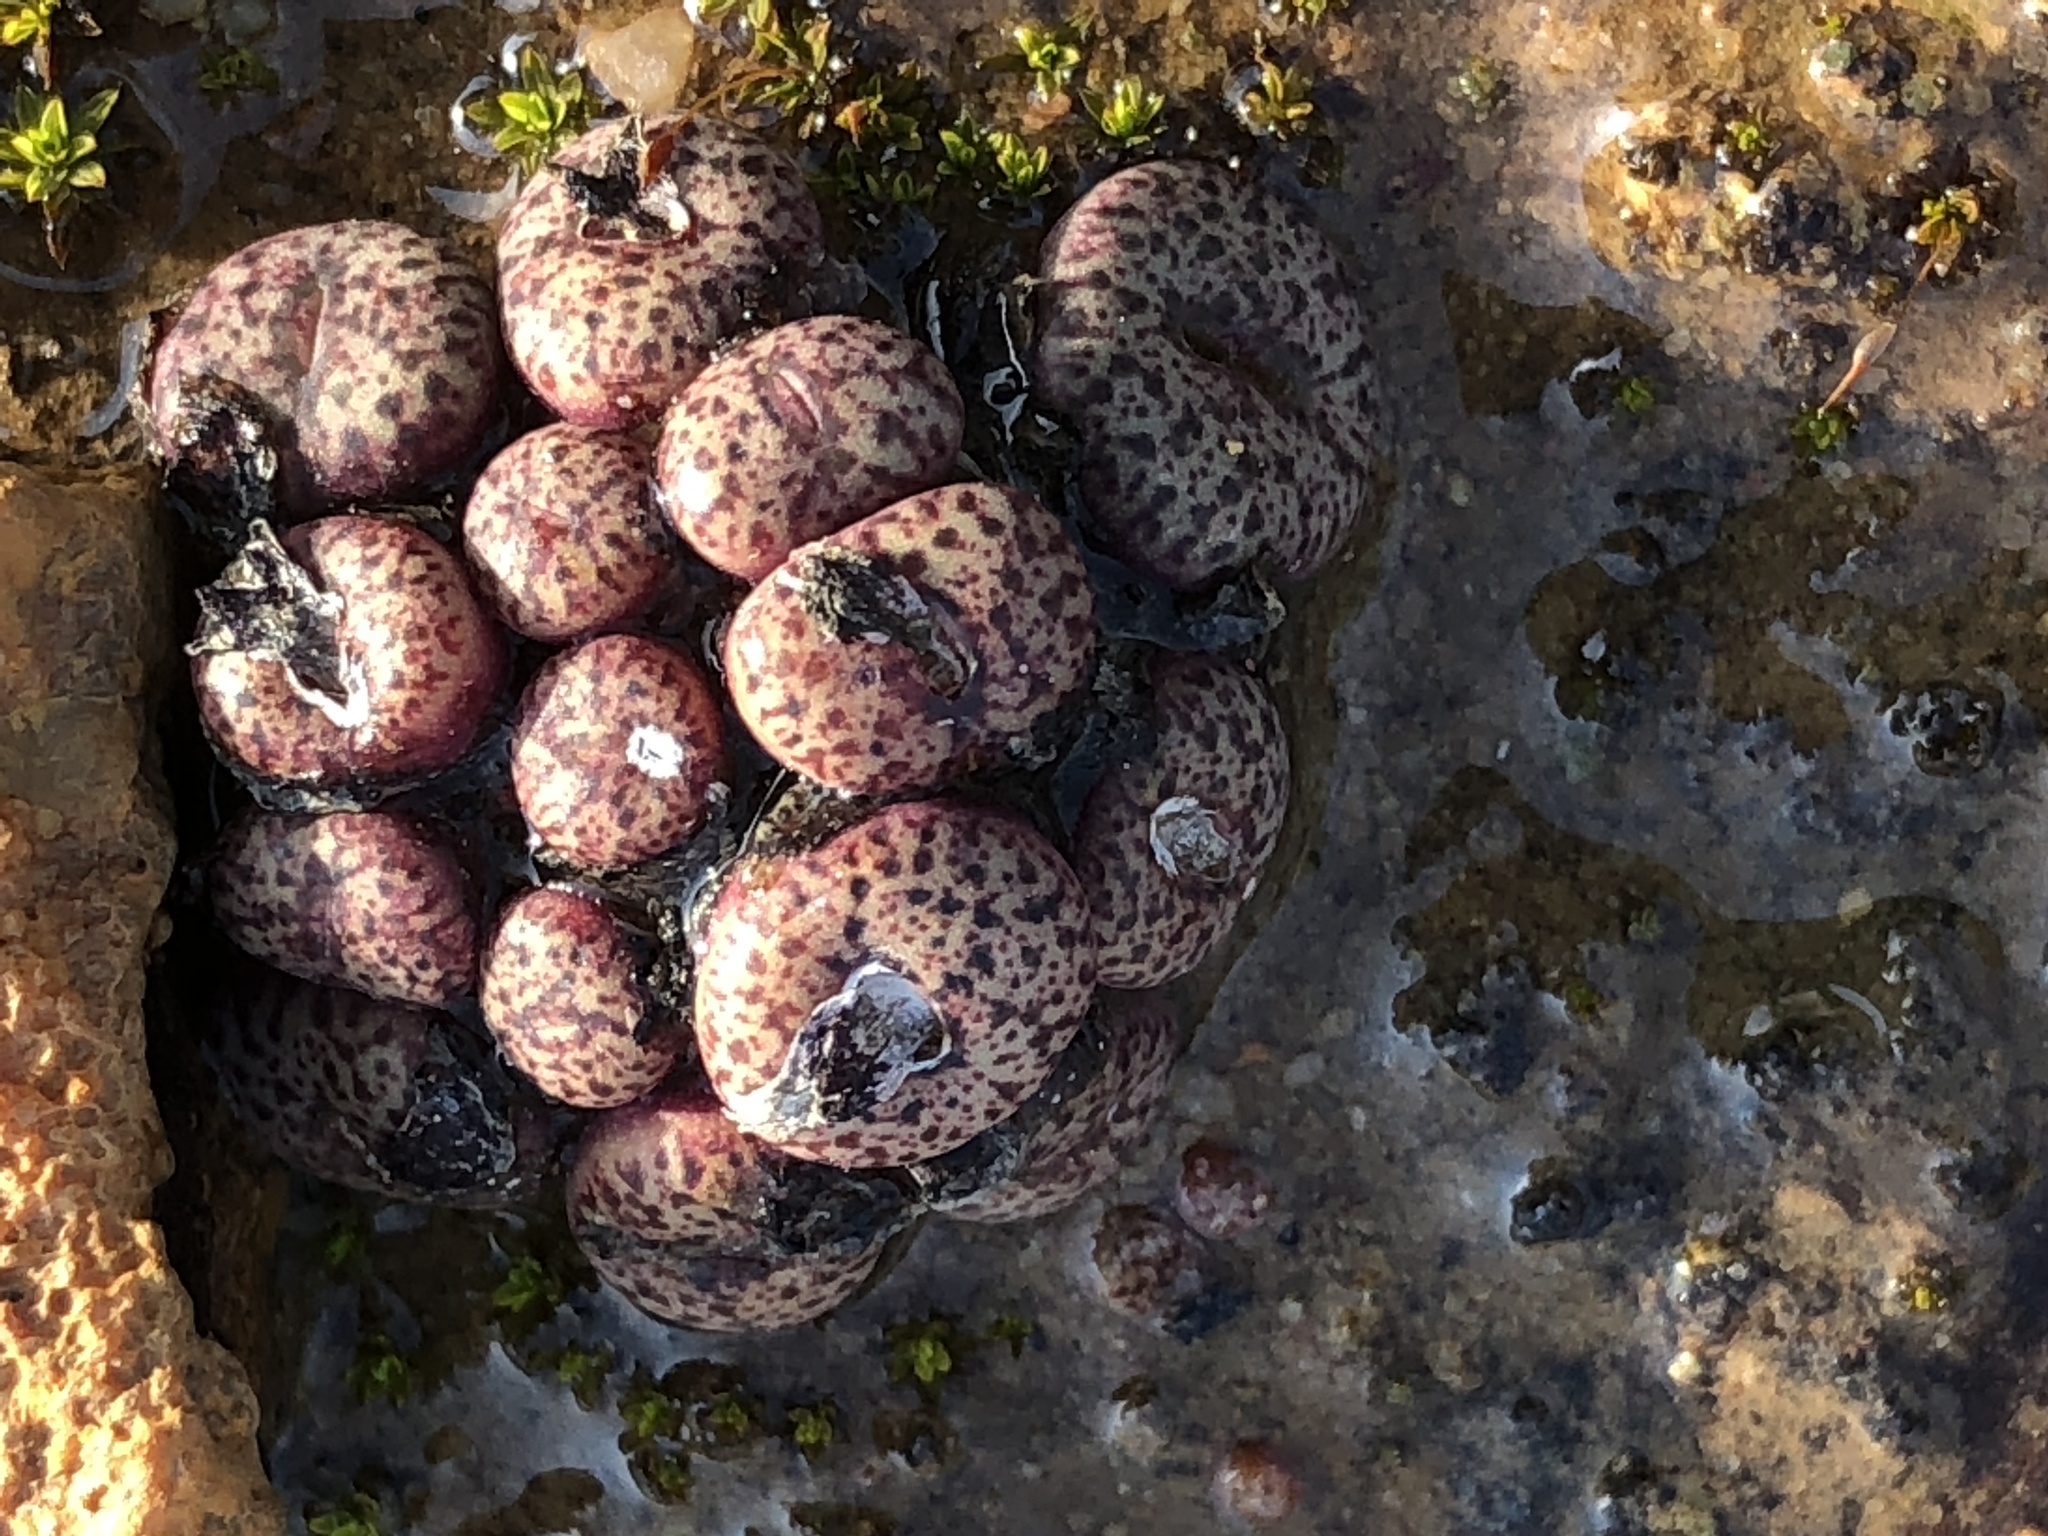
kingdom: Plantae
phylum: Tracheophyta
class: Magnoliopsida
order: Caryophyllales
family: Aizoaceae
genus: Conophytum
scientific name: Conophytum obcordellum
